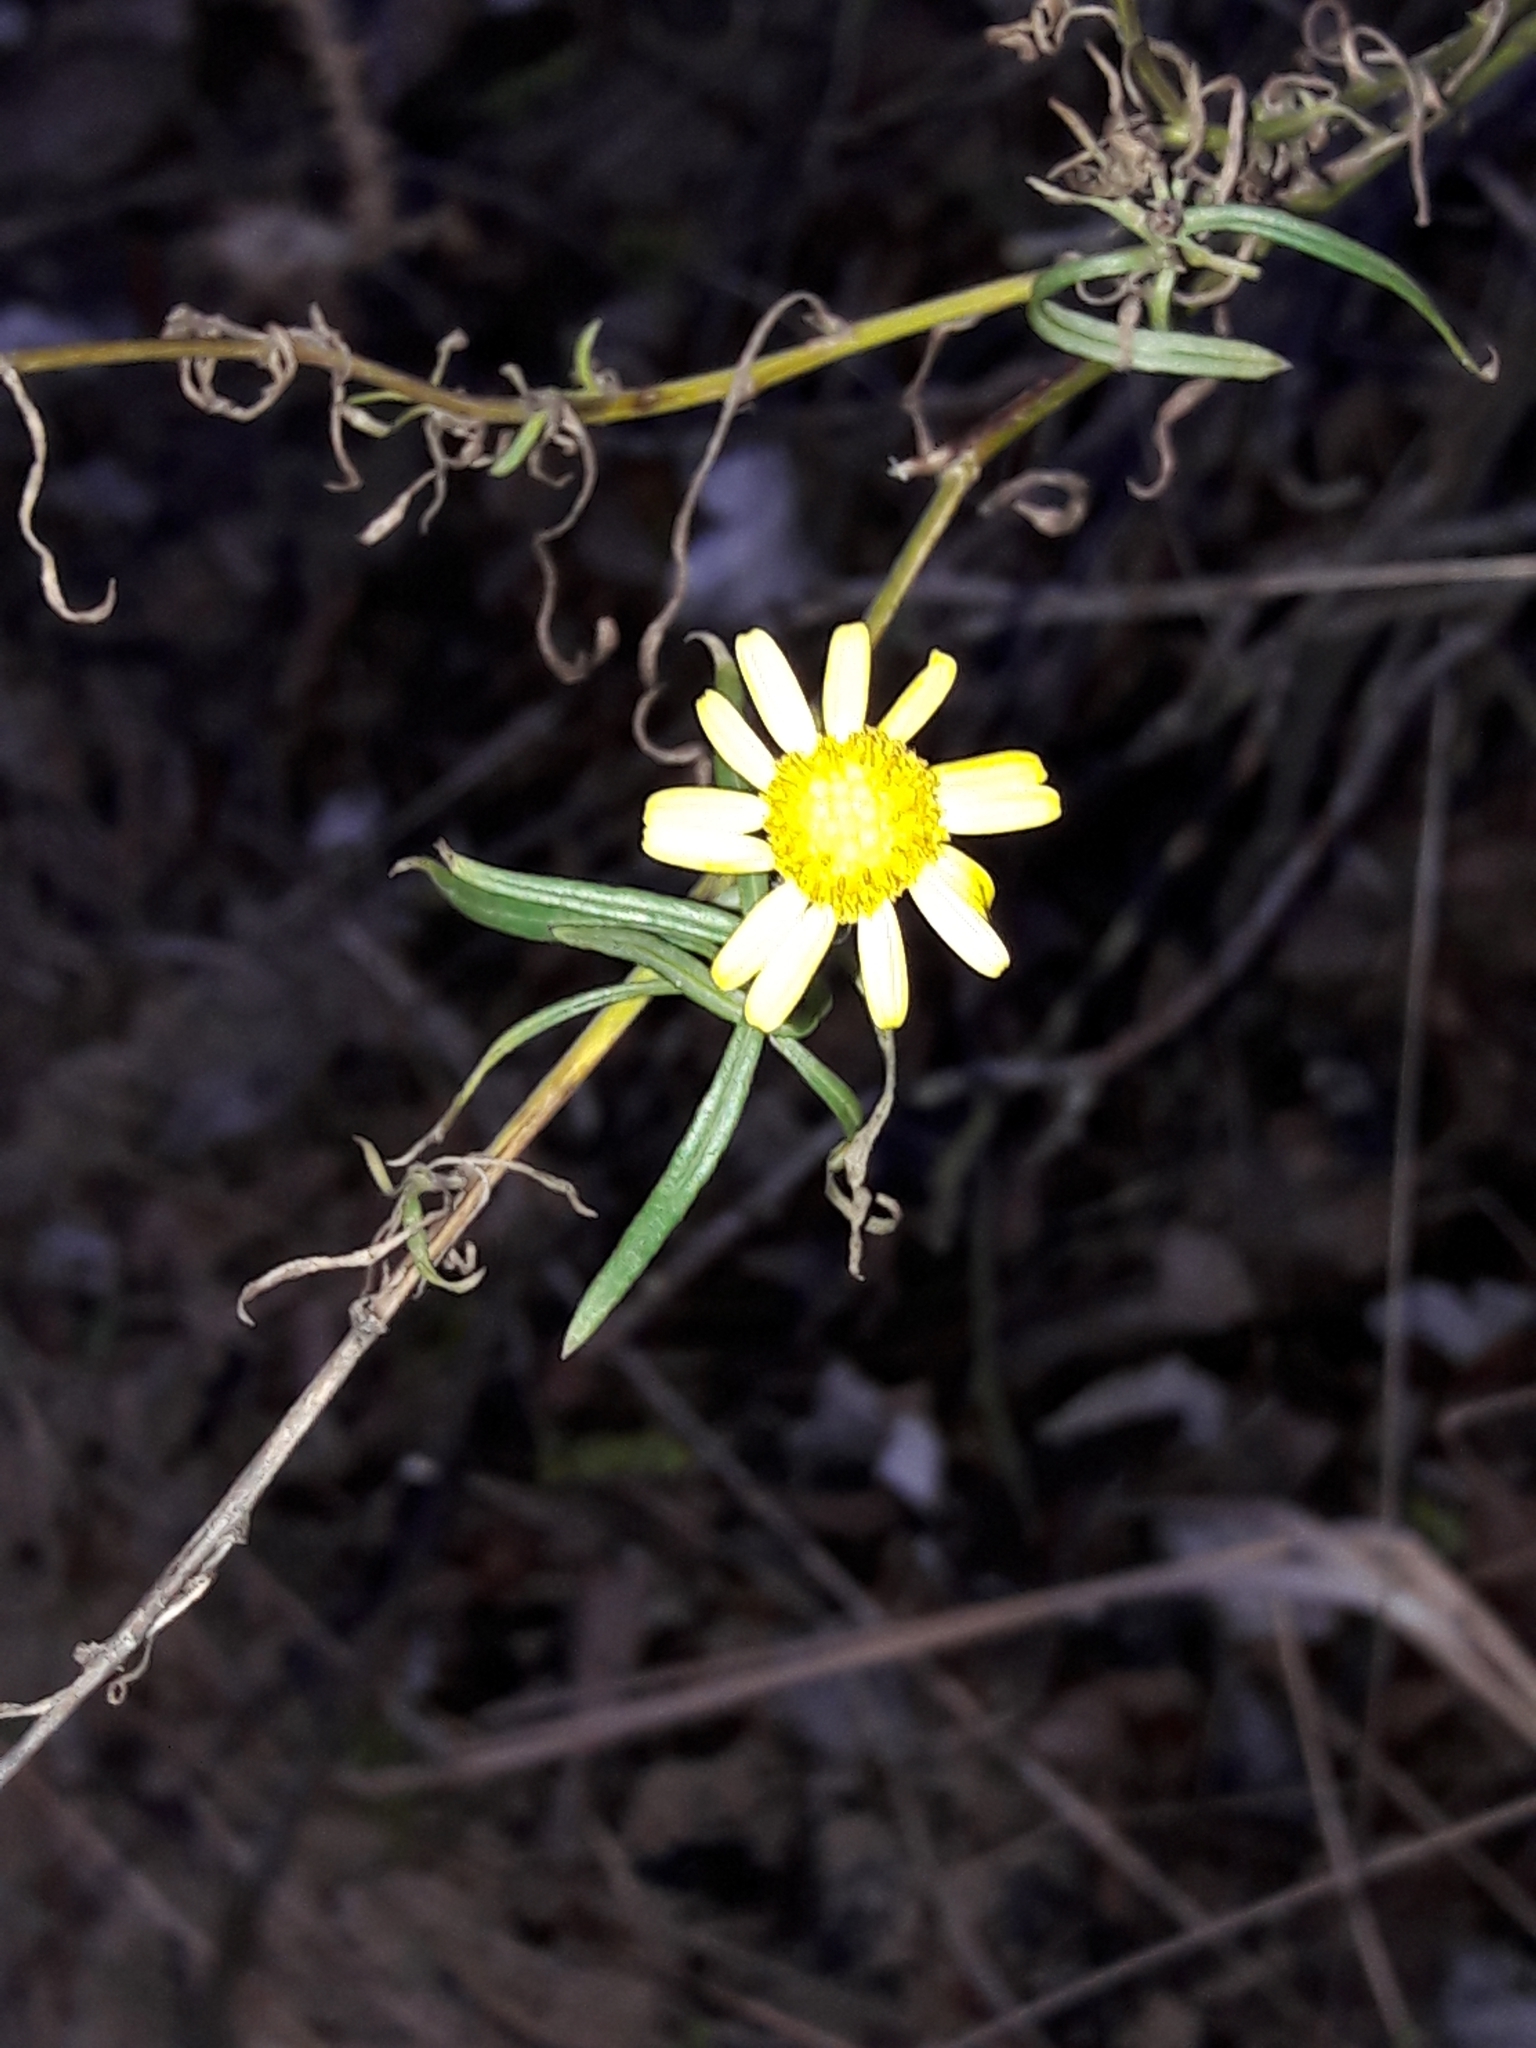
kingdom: Plantae
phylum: Tracheophyta
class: Magnoliopsida
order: Asterales
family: Asteraceae
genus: Senecio
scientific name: Senecio inaequidens
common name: Narrow-leaved ragwort
